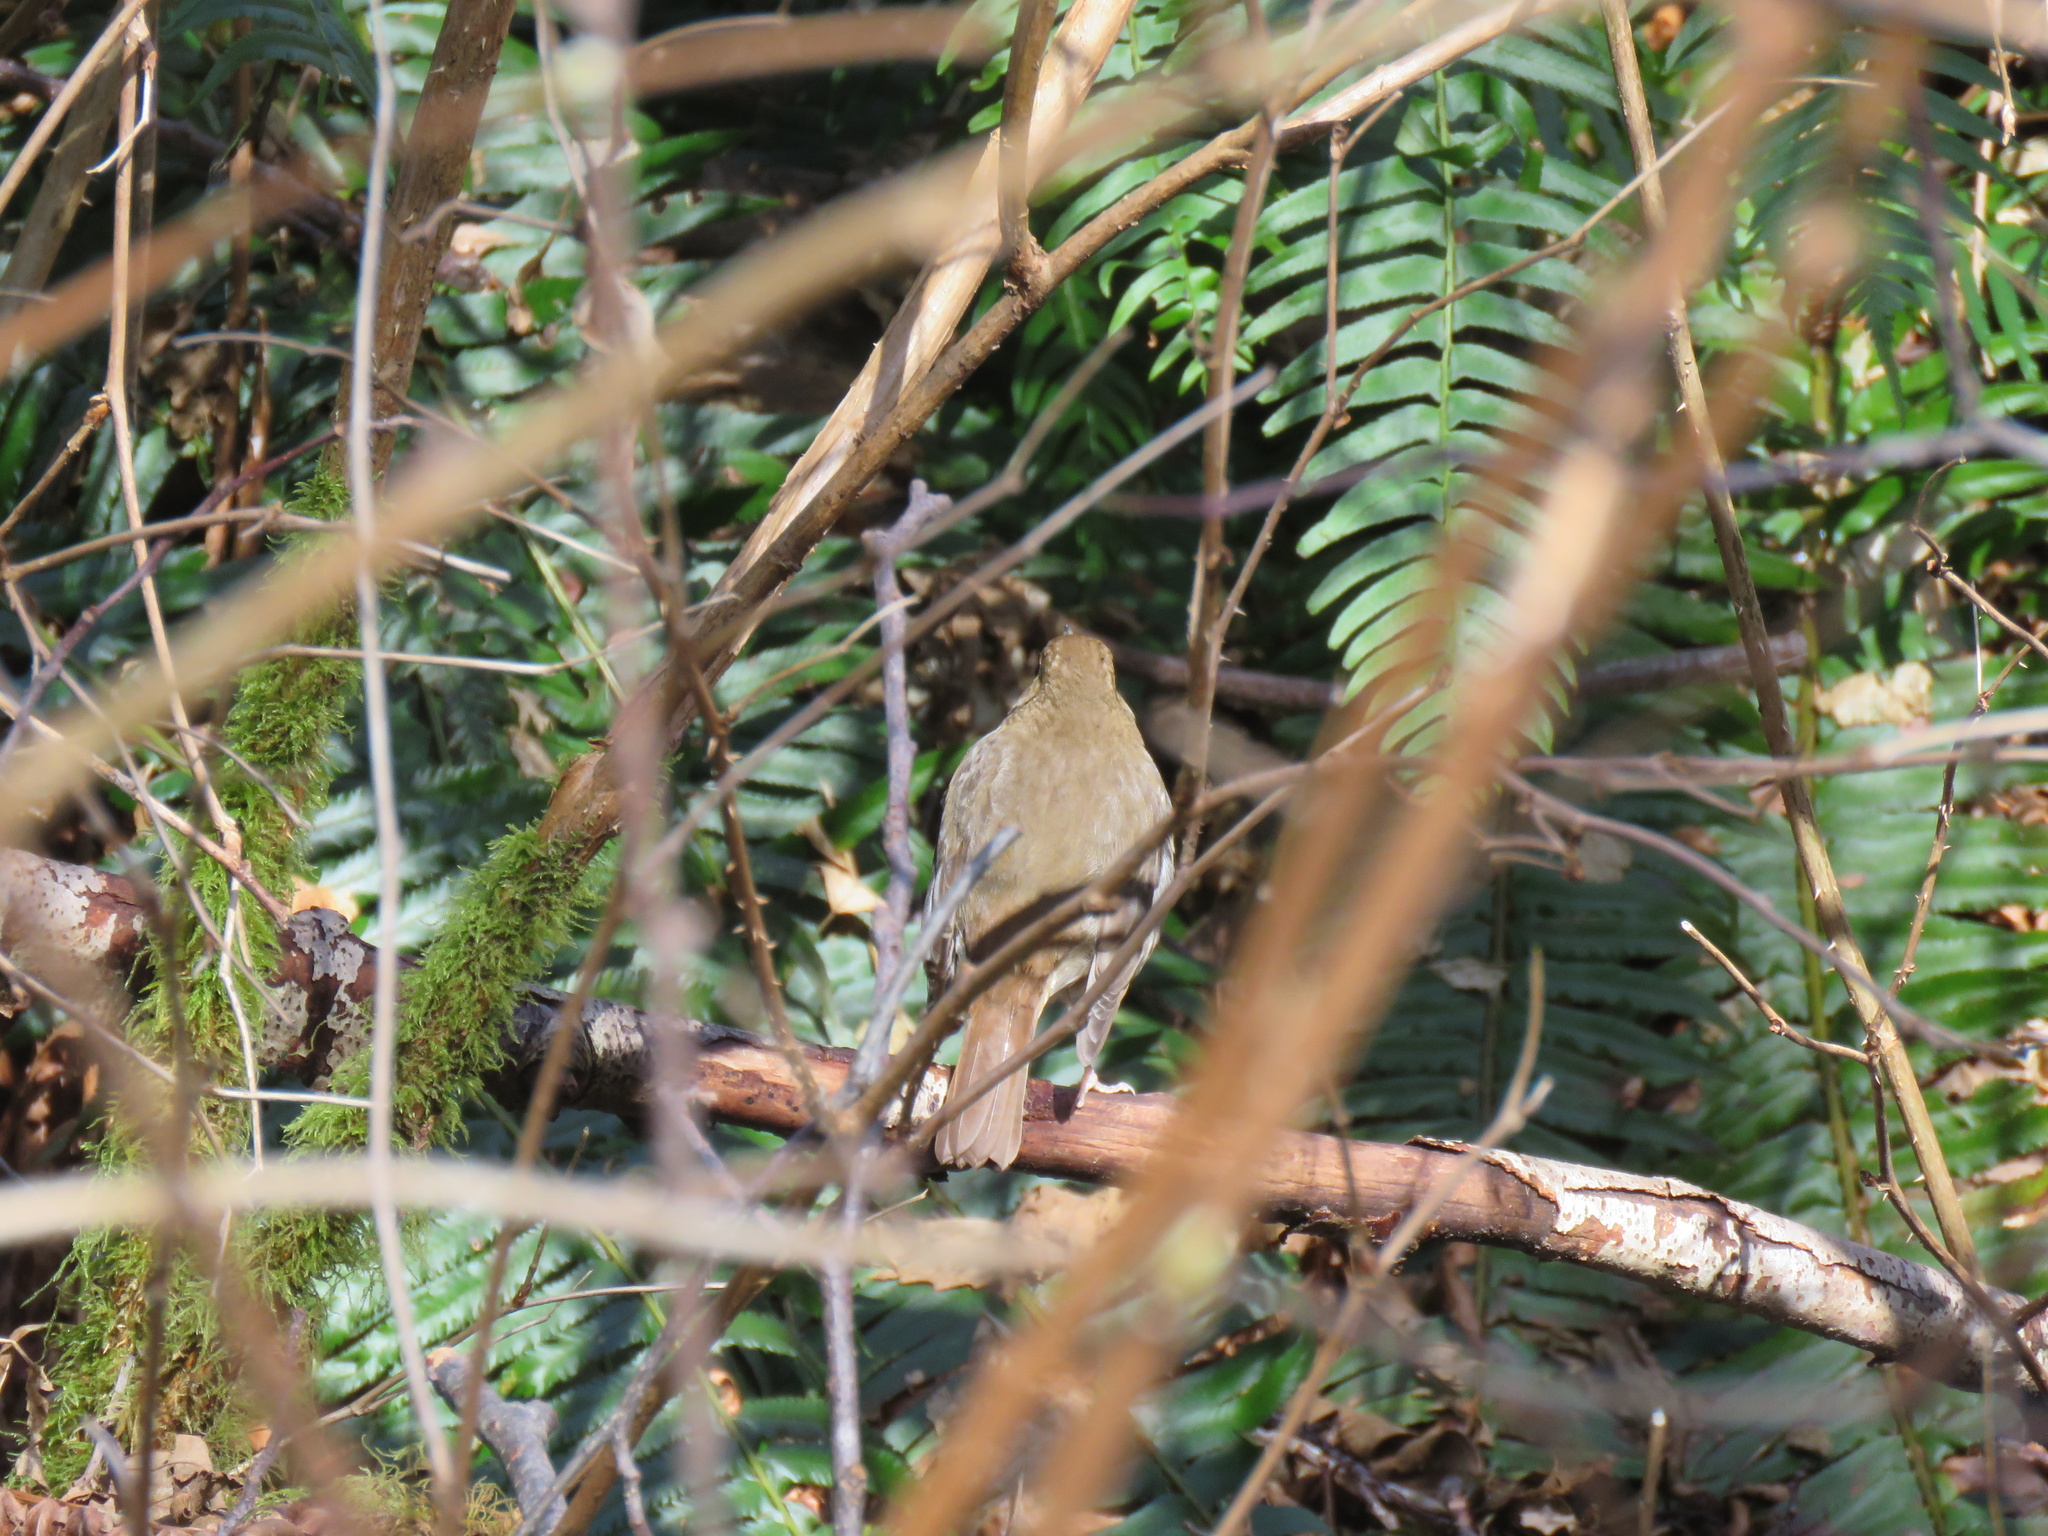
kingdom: Animalia
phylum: Chordata
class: Aves
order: Passeriformes
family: Turdidae
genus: Catharus
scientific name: Catharus guttatus
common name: Hermit thrush
